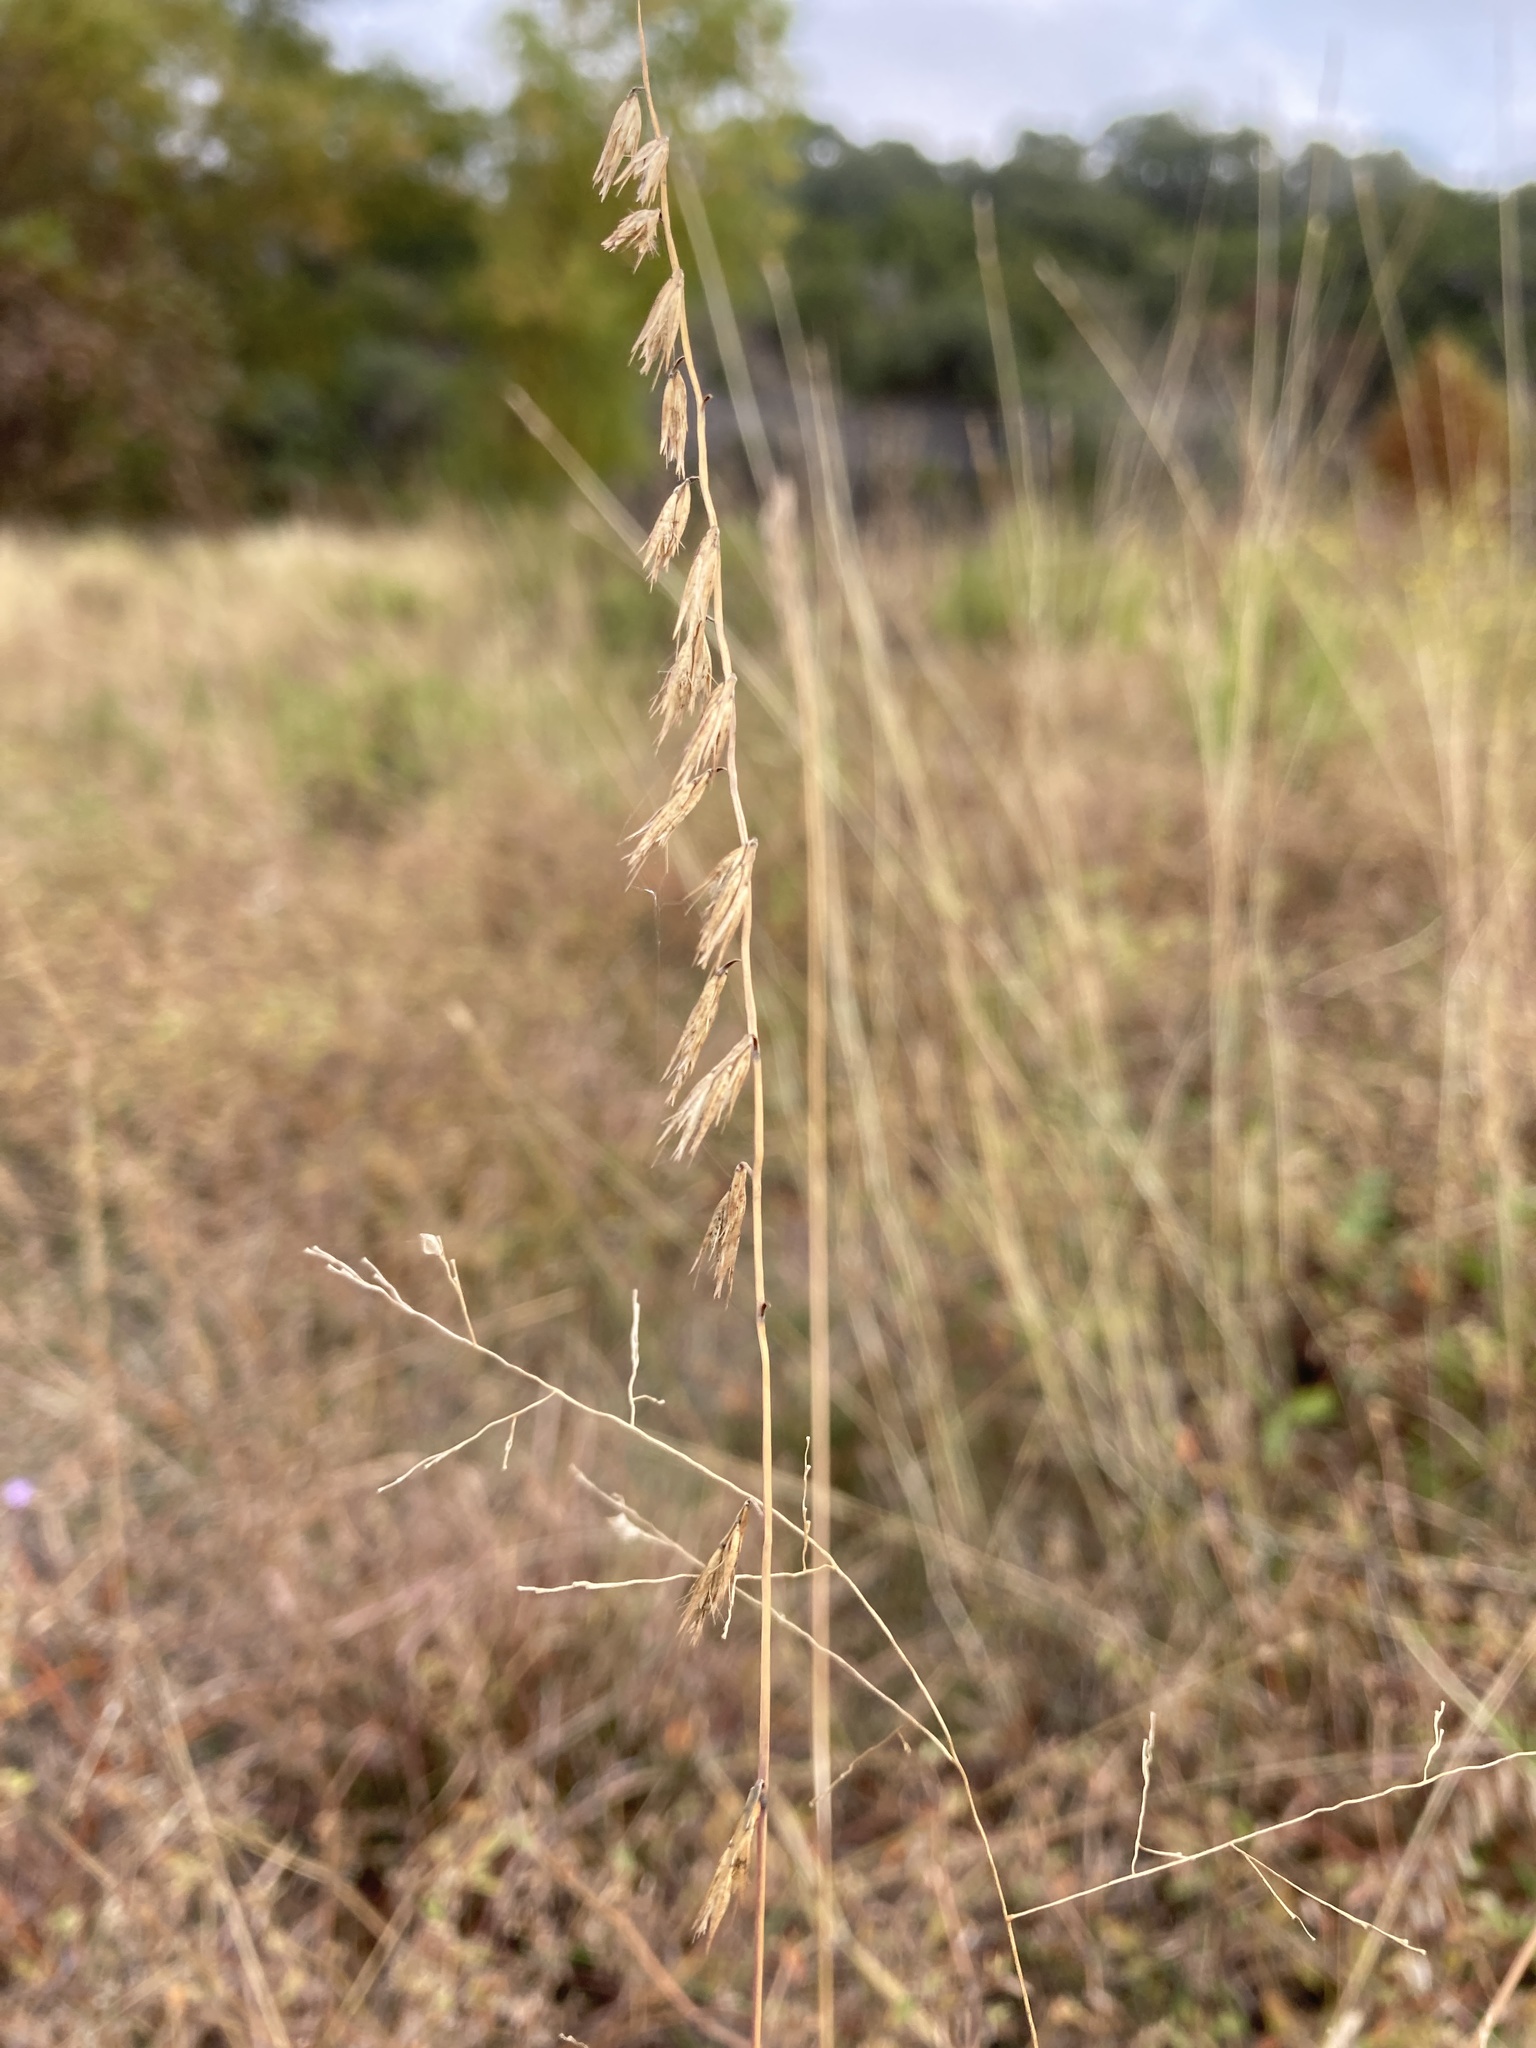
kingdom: Plantae
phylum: Tracheophyta
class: Liliopsida
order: Poales
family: Poaceae
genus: Bouteloua
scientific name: Bouteloua curtipendula
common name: Side-oats grama
